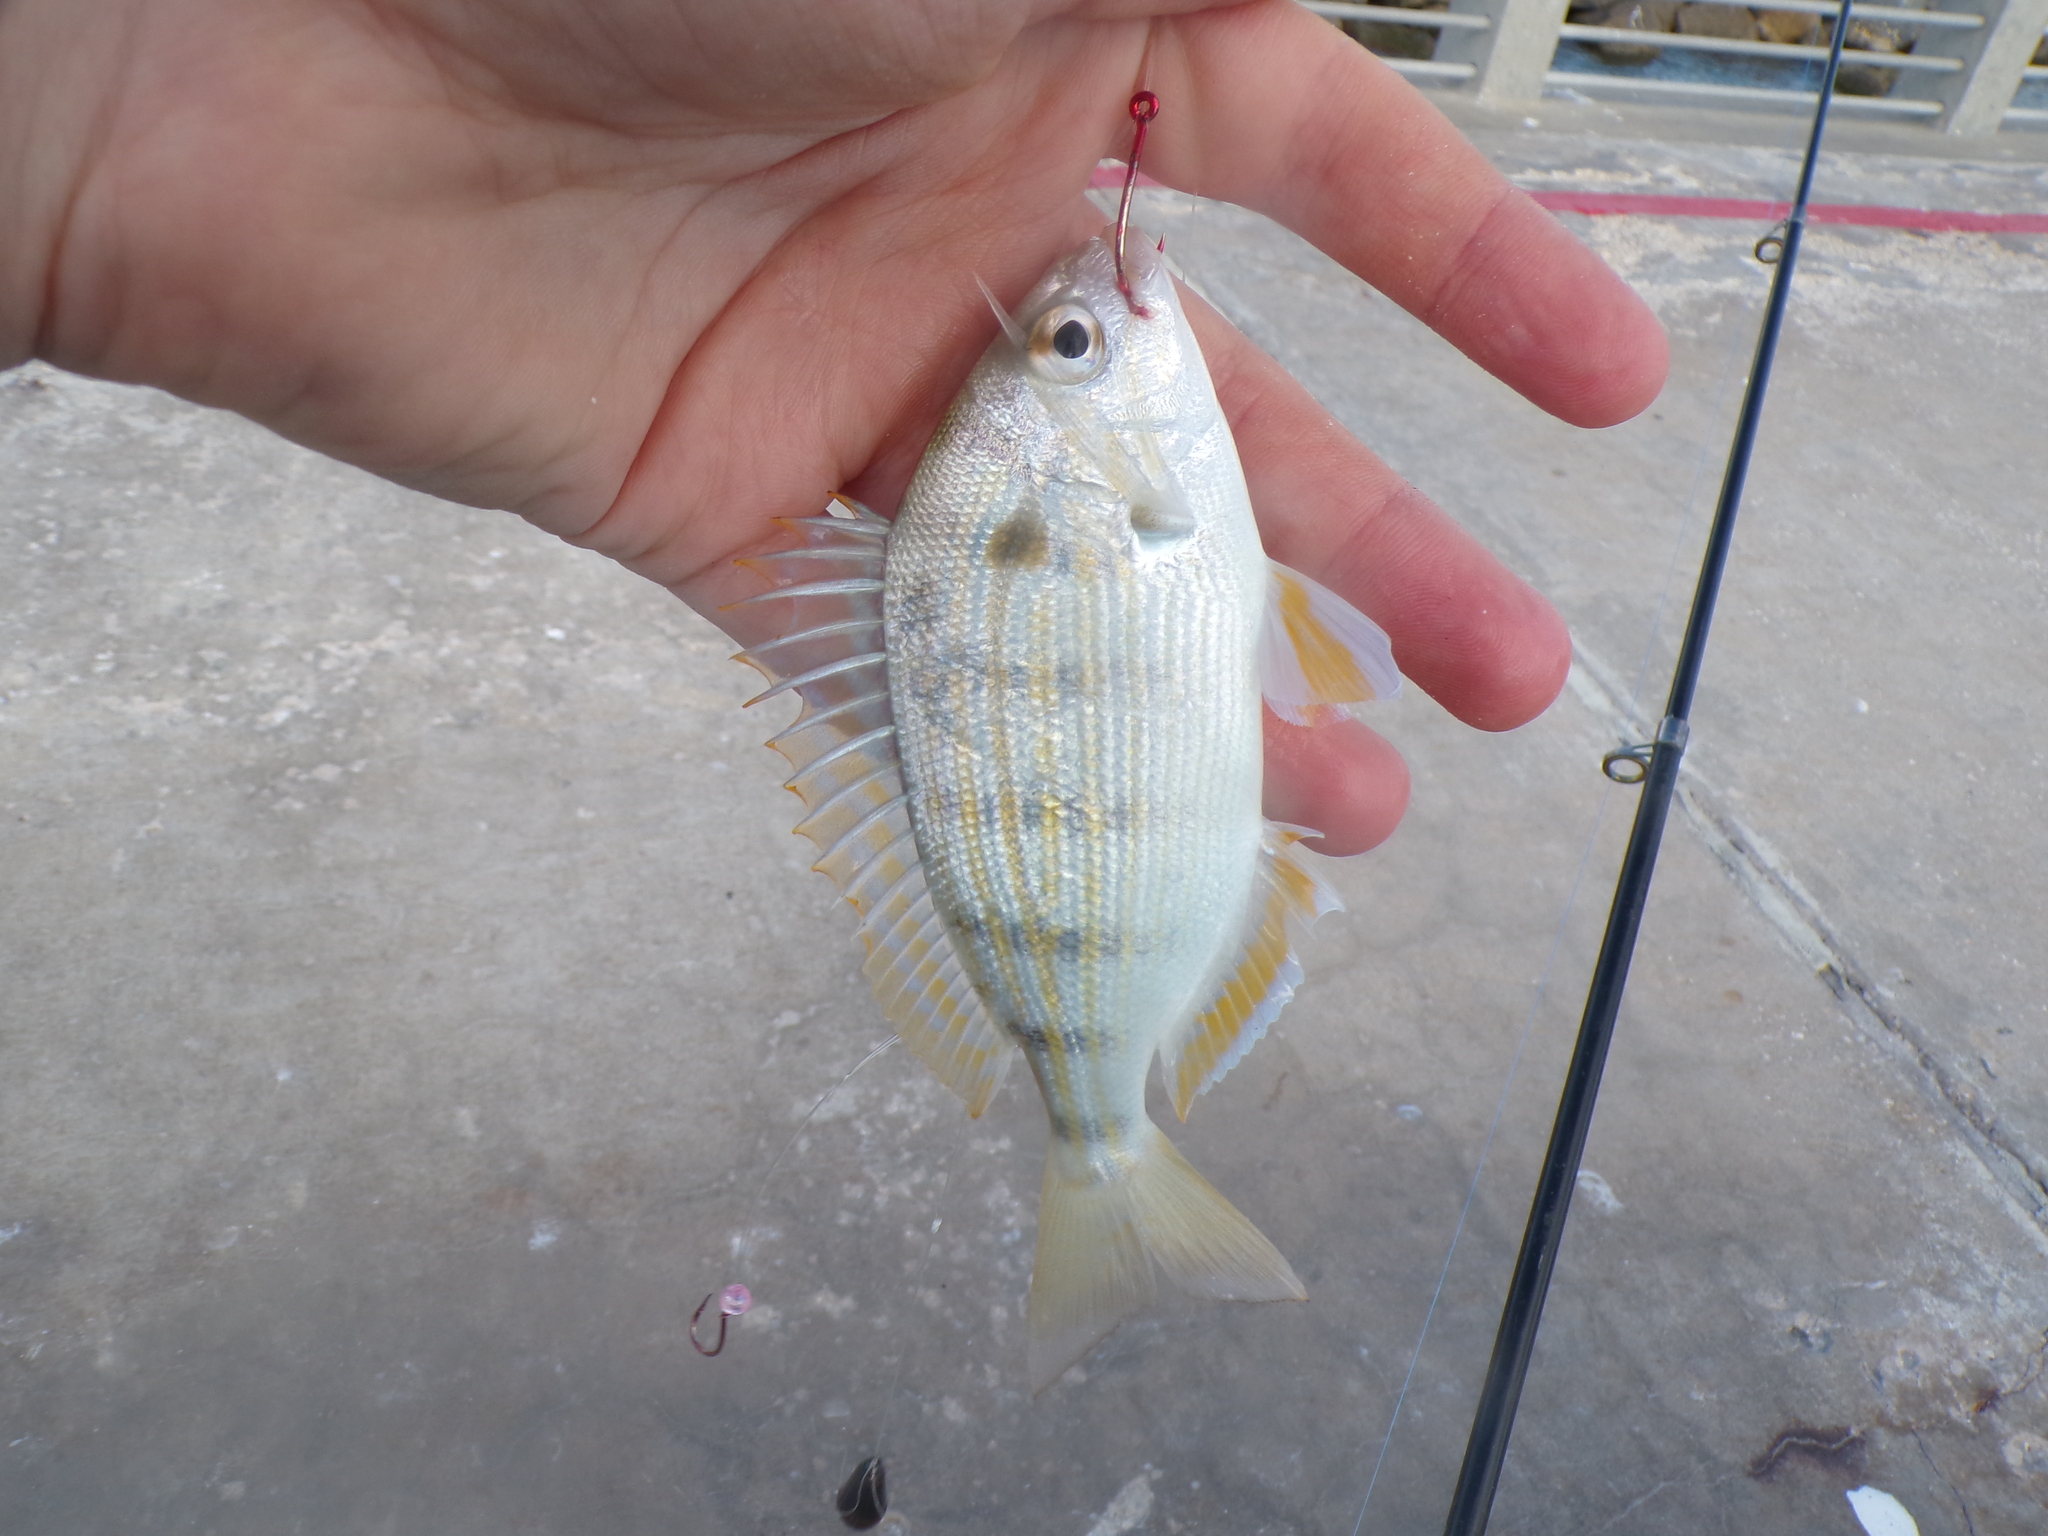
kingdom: Animalia
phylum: Chordata
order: Perciformes
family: Sparidae
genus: Lagodon
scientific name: Lagodon rhomboides
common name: Pinfish
